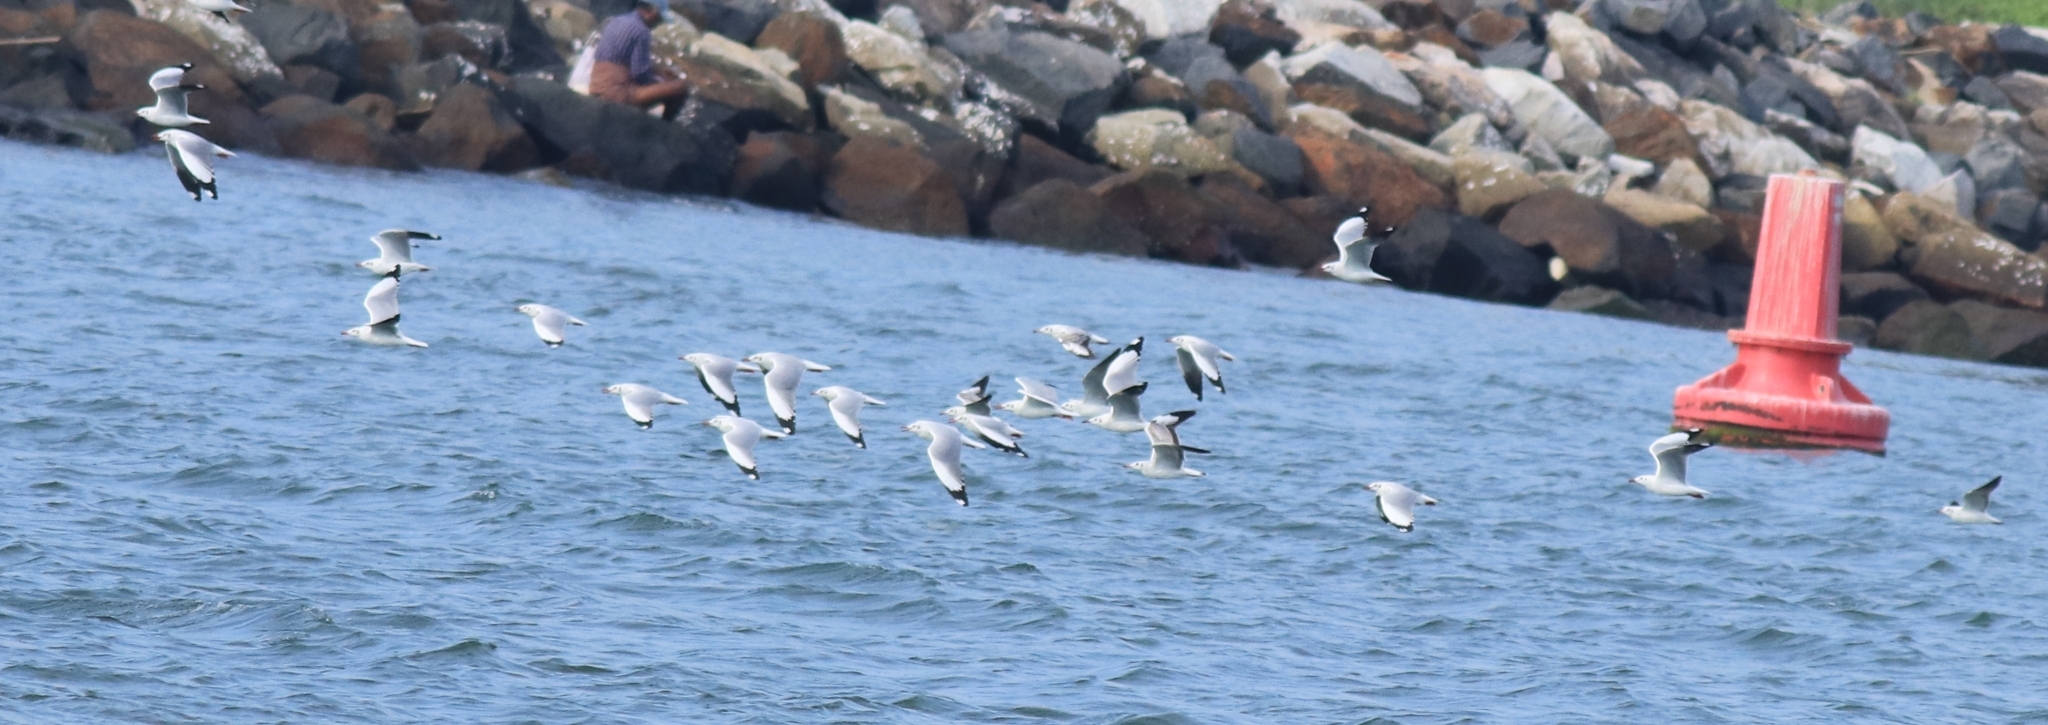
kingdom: Animalia
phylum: Chordata
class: Aves
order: Charadriiformes
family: Laridae
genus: Chroicocephalus
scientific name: Chroicocephalus brunnicephalus
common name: Brown-headed gull
